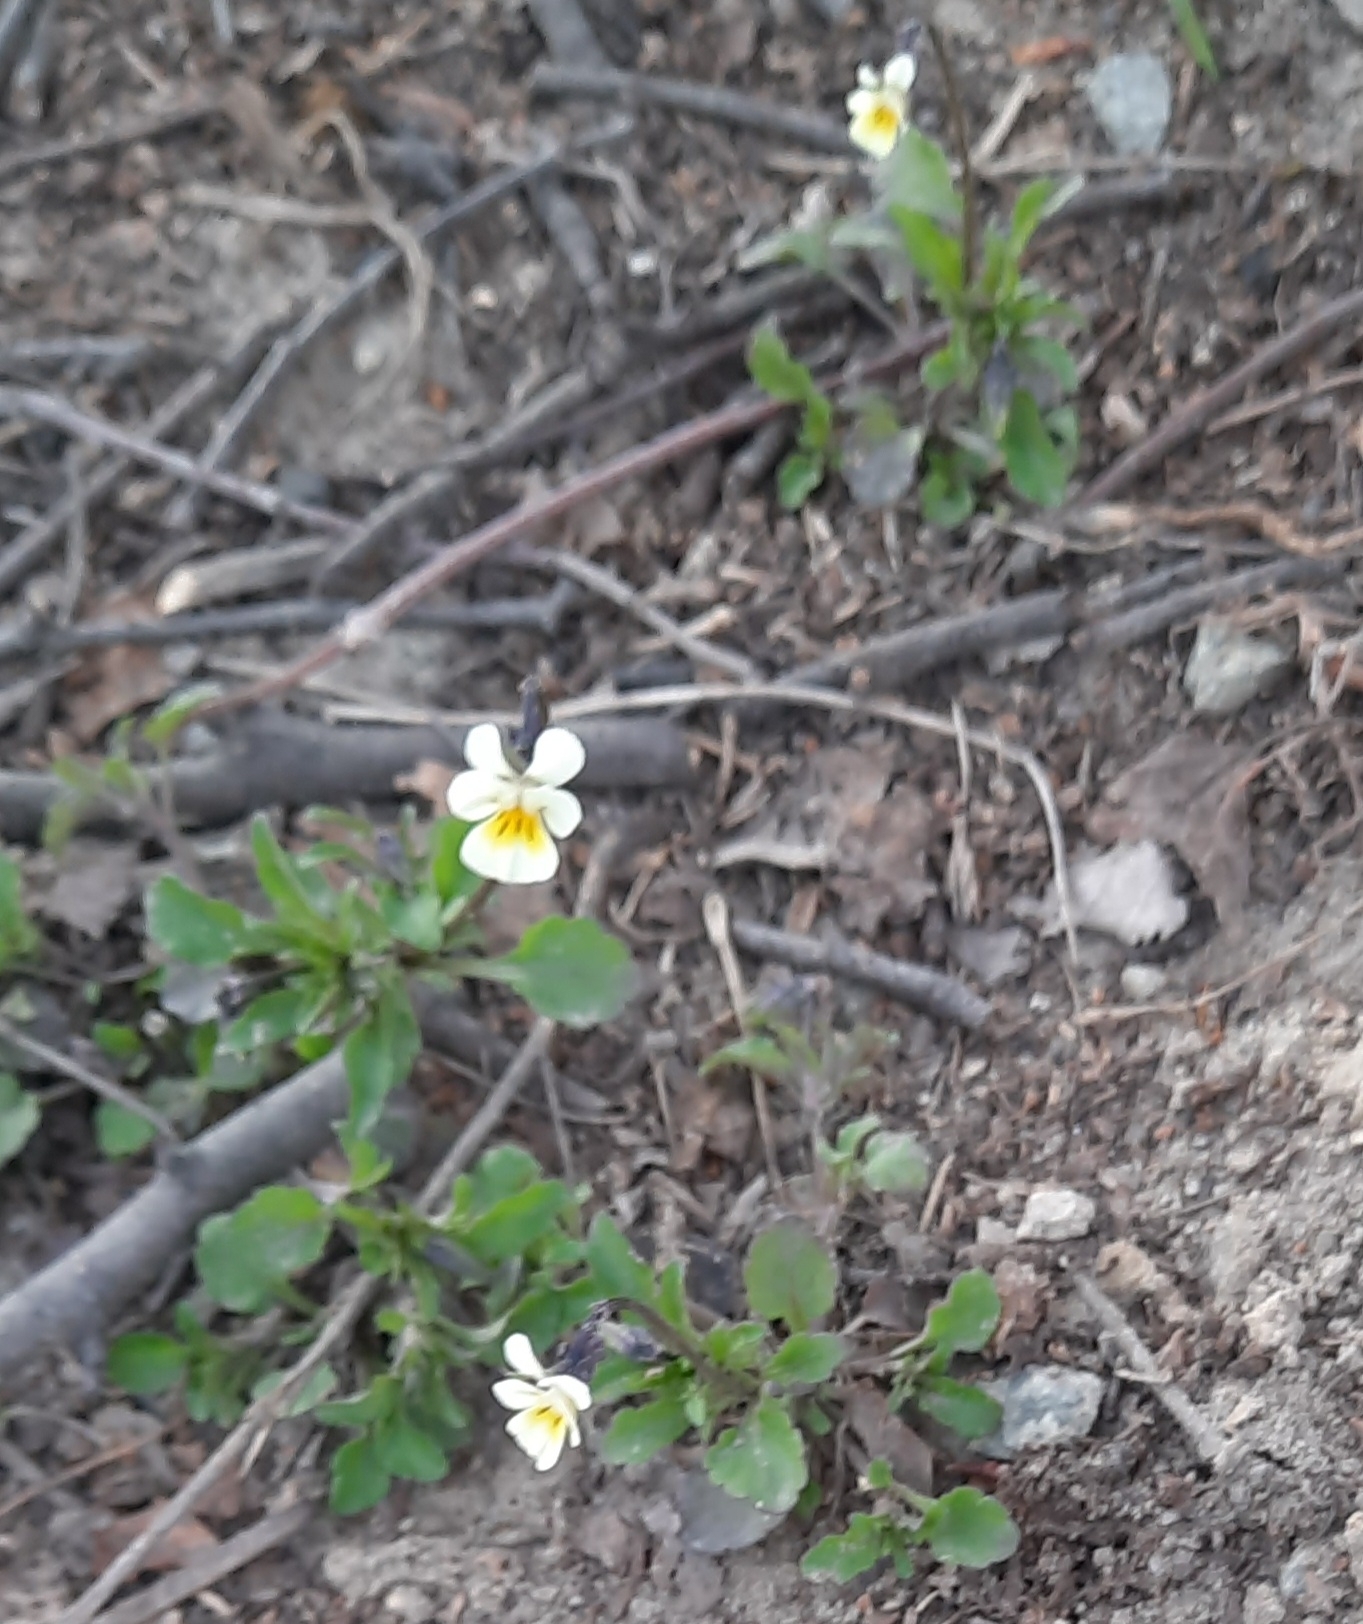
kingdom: Plantae
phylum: Tracheophyta
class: Magnoliopsida
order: Malpighiales
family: Violaceae
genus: Viola
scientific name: Viola arvensis
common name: Field pansy
